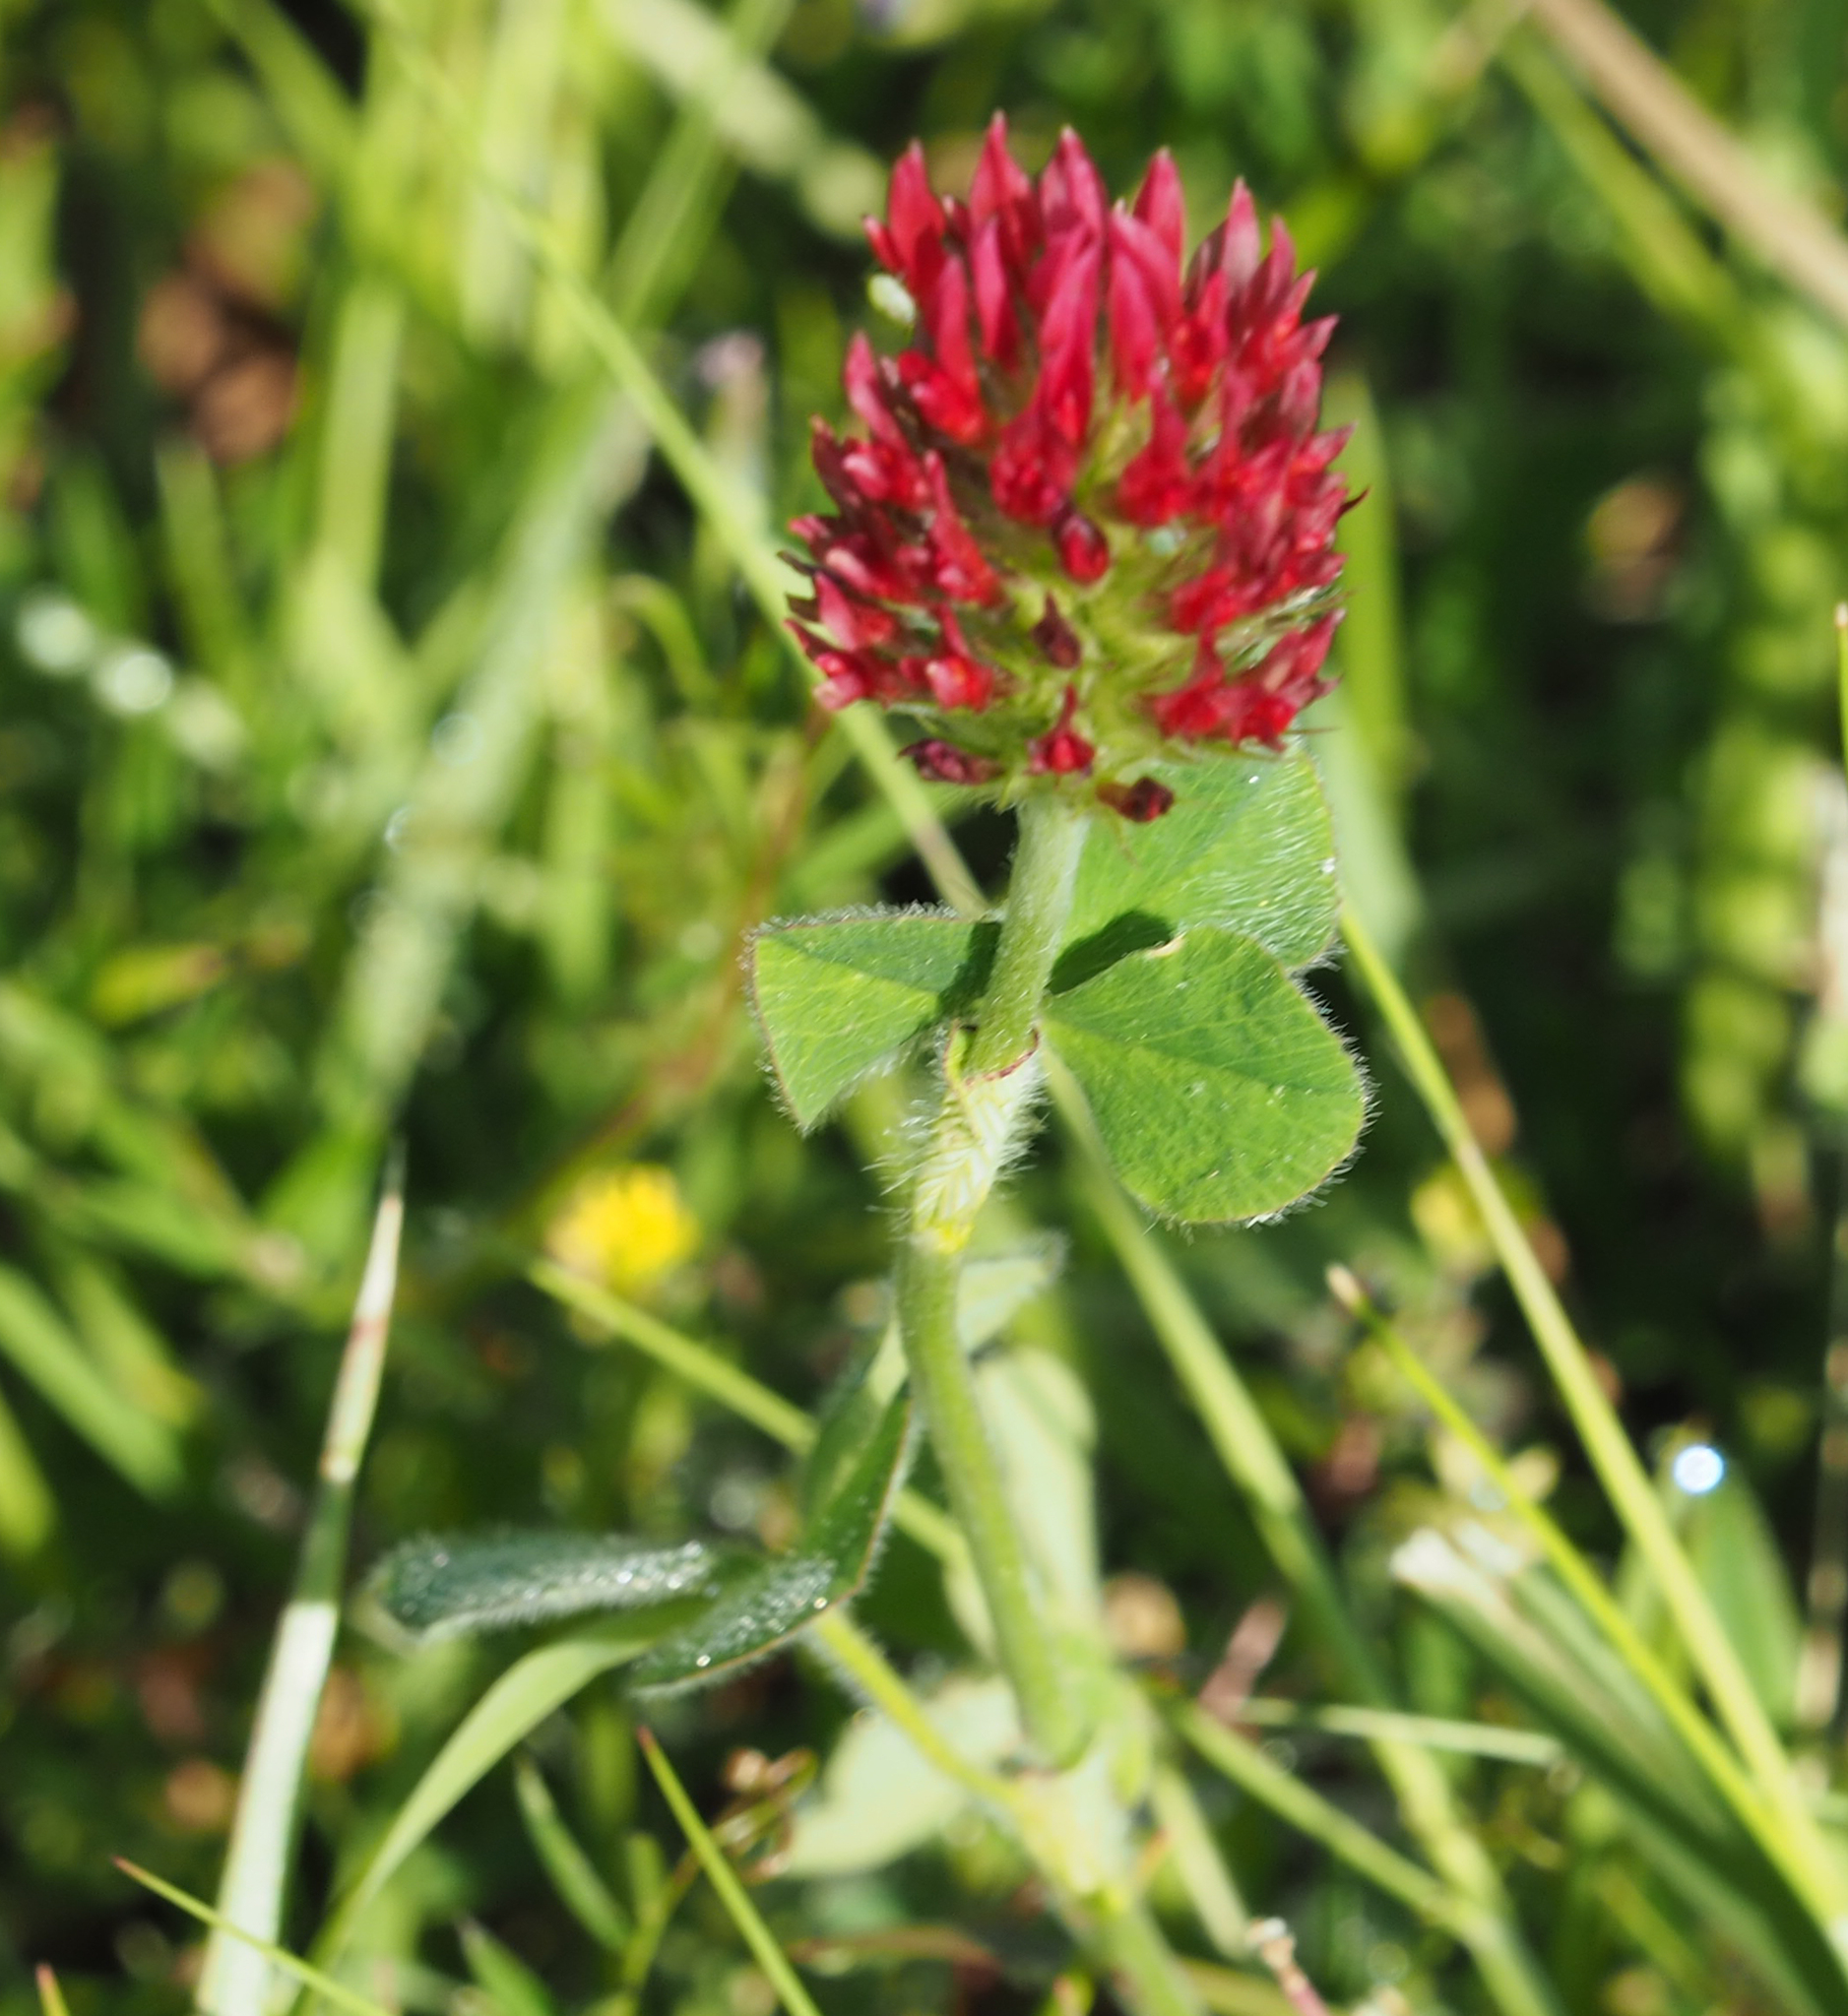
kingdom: Plantae
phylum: Tracheophyta
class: Magnoliopsida
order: Fabales
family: Fabaceae
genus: Trifolium
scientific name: Trifolium incarnatum
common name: Crimson clover
